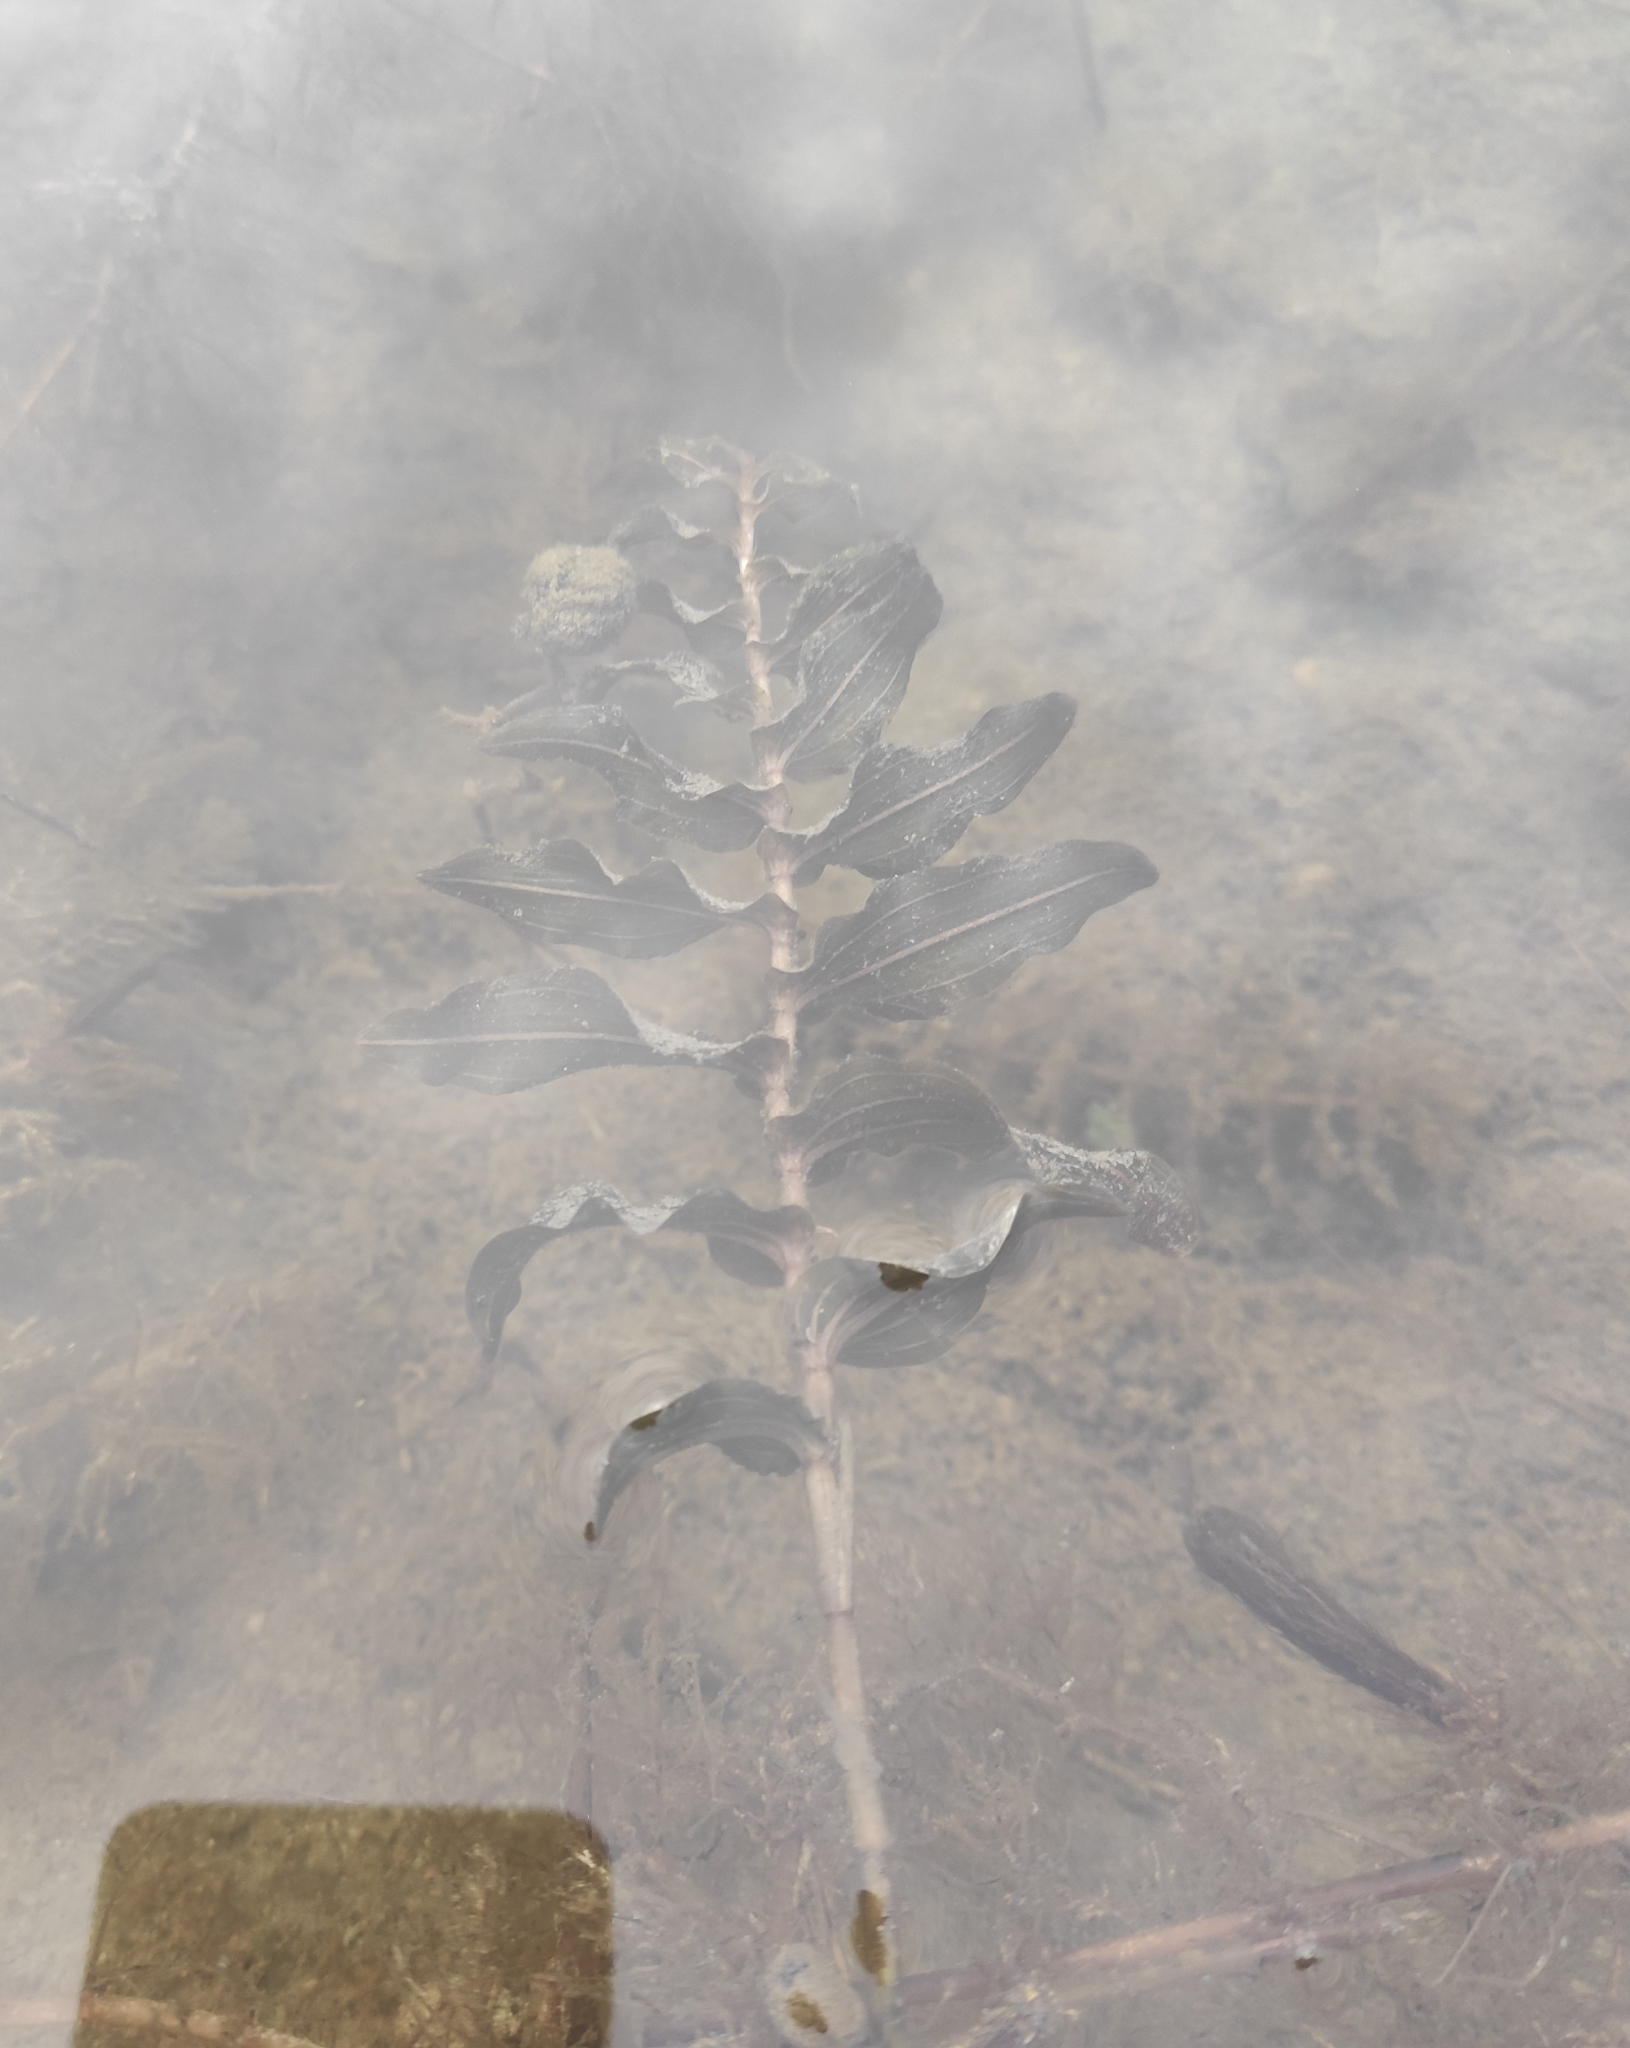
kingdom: Plantae
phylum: Tracheophyta
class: Liliopsida
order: Alismatales
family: Potamogetonaceae
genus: Potamogeton
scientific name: Potamogeton perfoliatus
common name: Perfoliate pondweed
